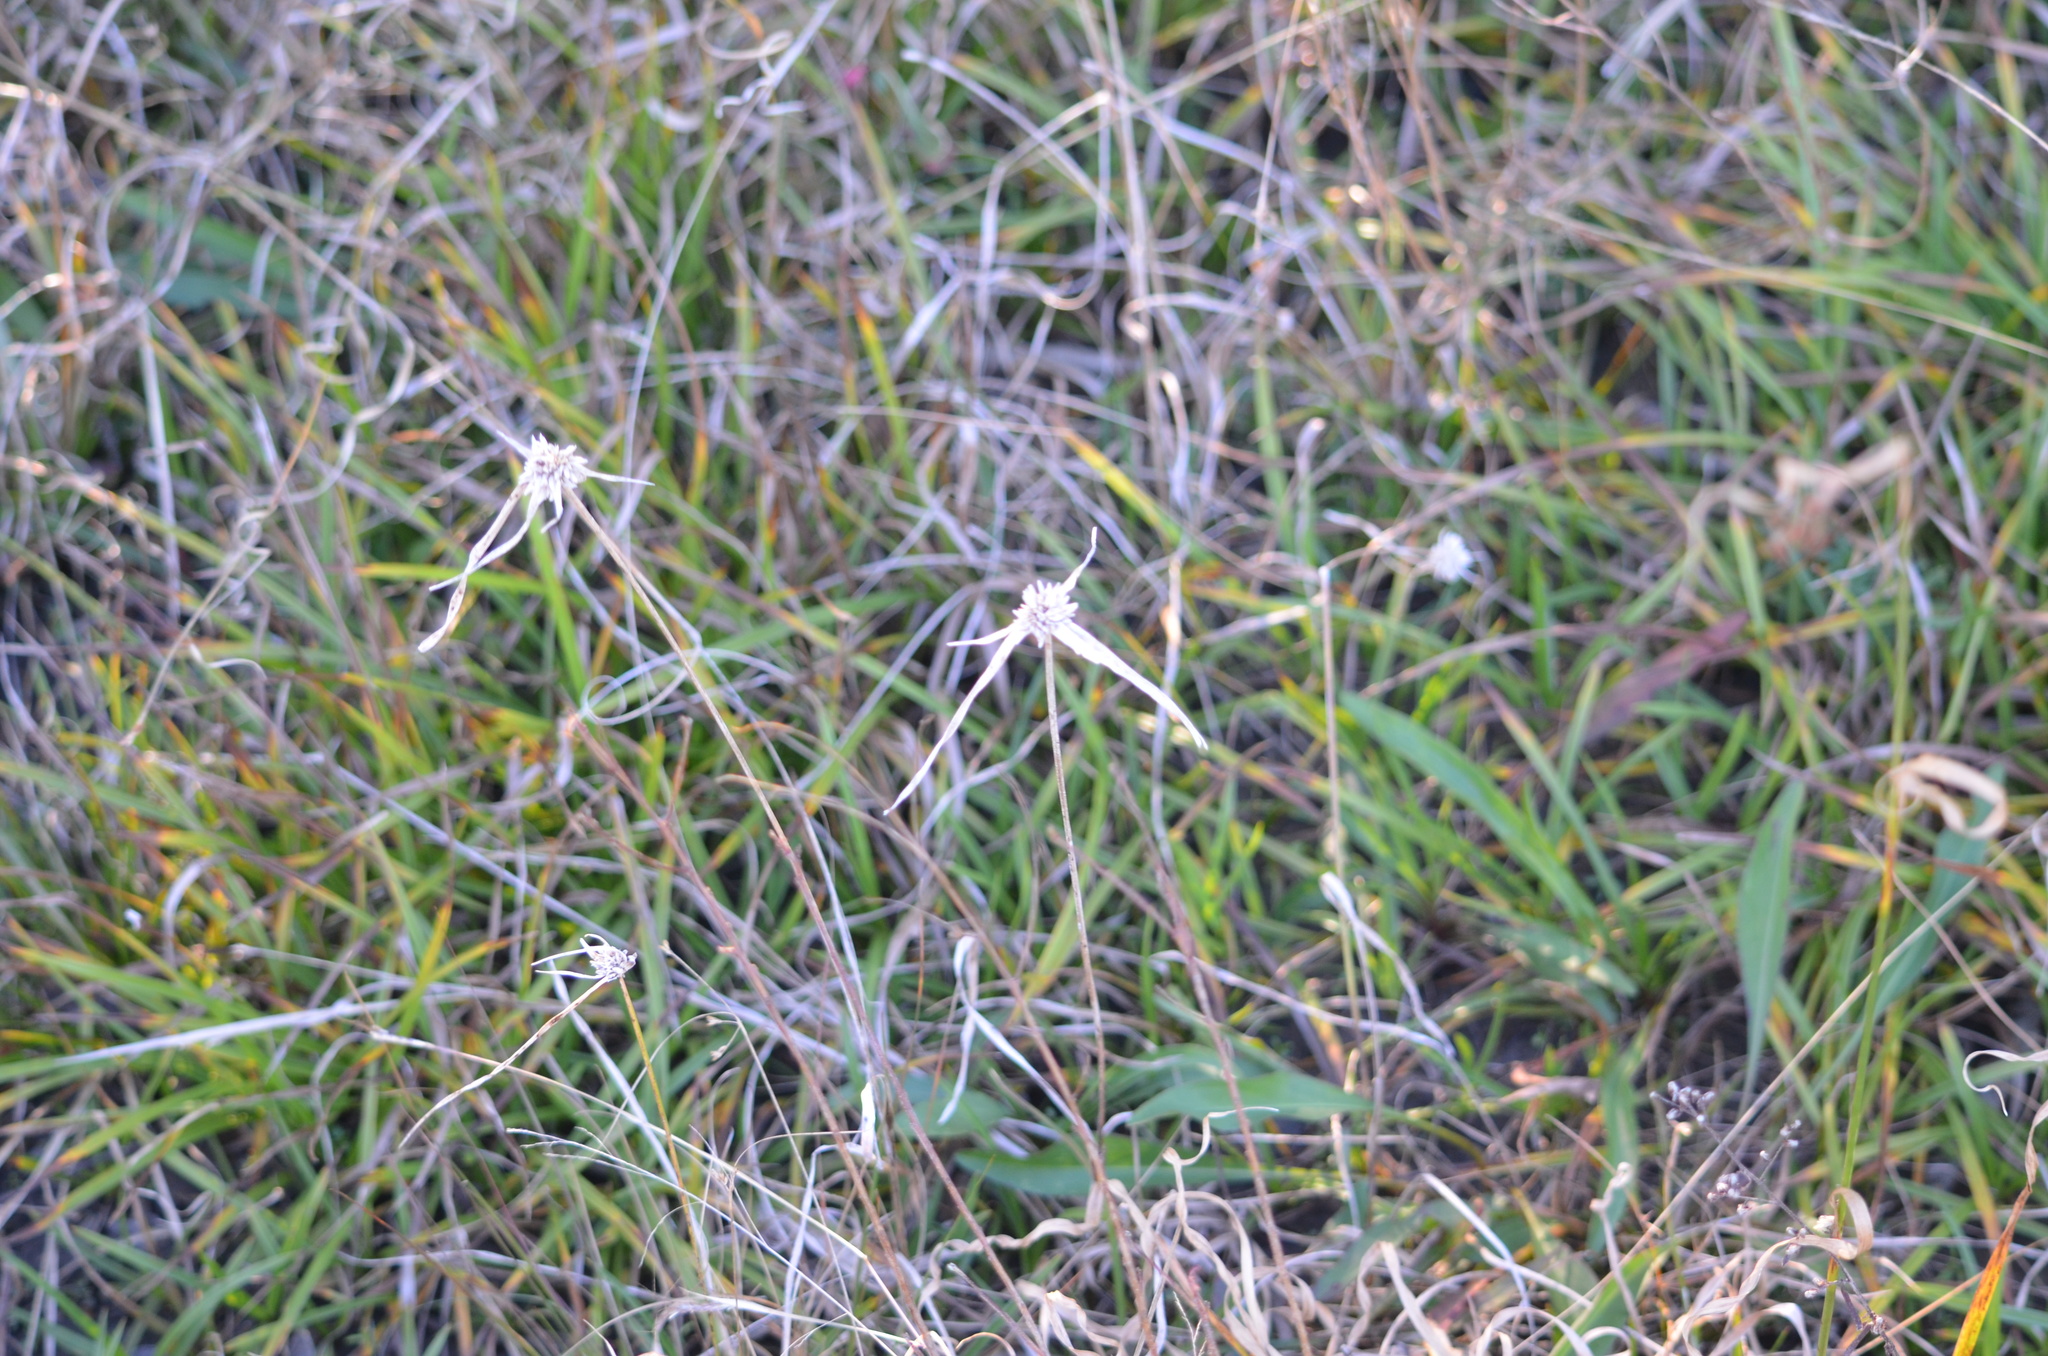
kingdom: Plantae
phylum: Tracheophyta
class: Liliopsida
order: Poales
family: Cyperaceae
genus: Rhynchospora
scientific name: Rhynchospora colorata
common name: Star sedge
